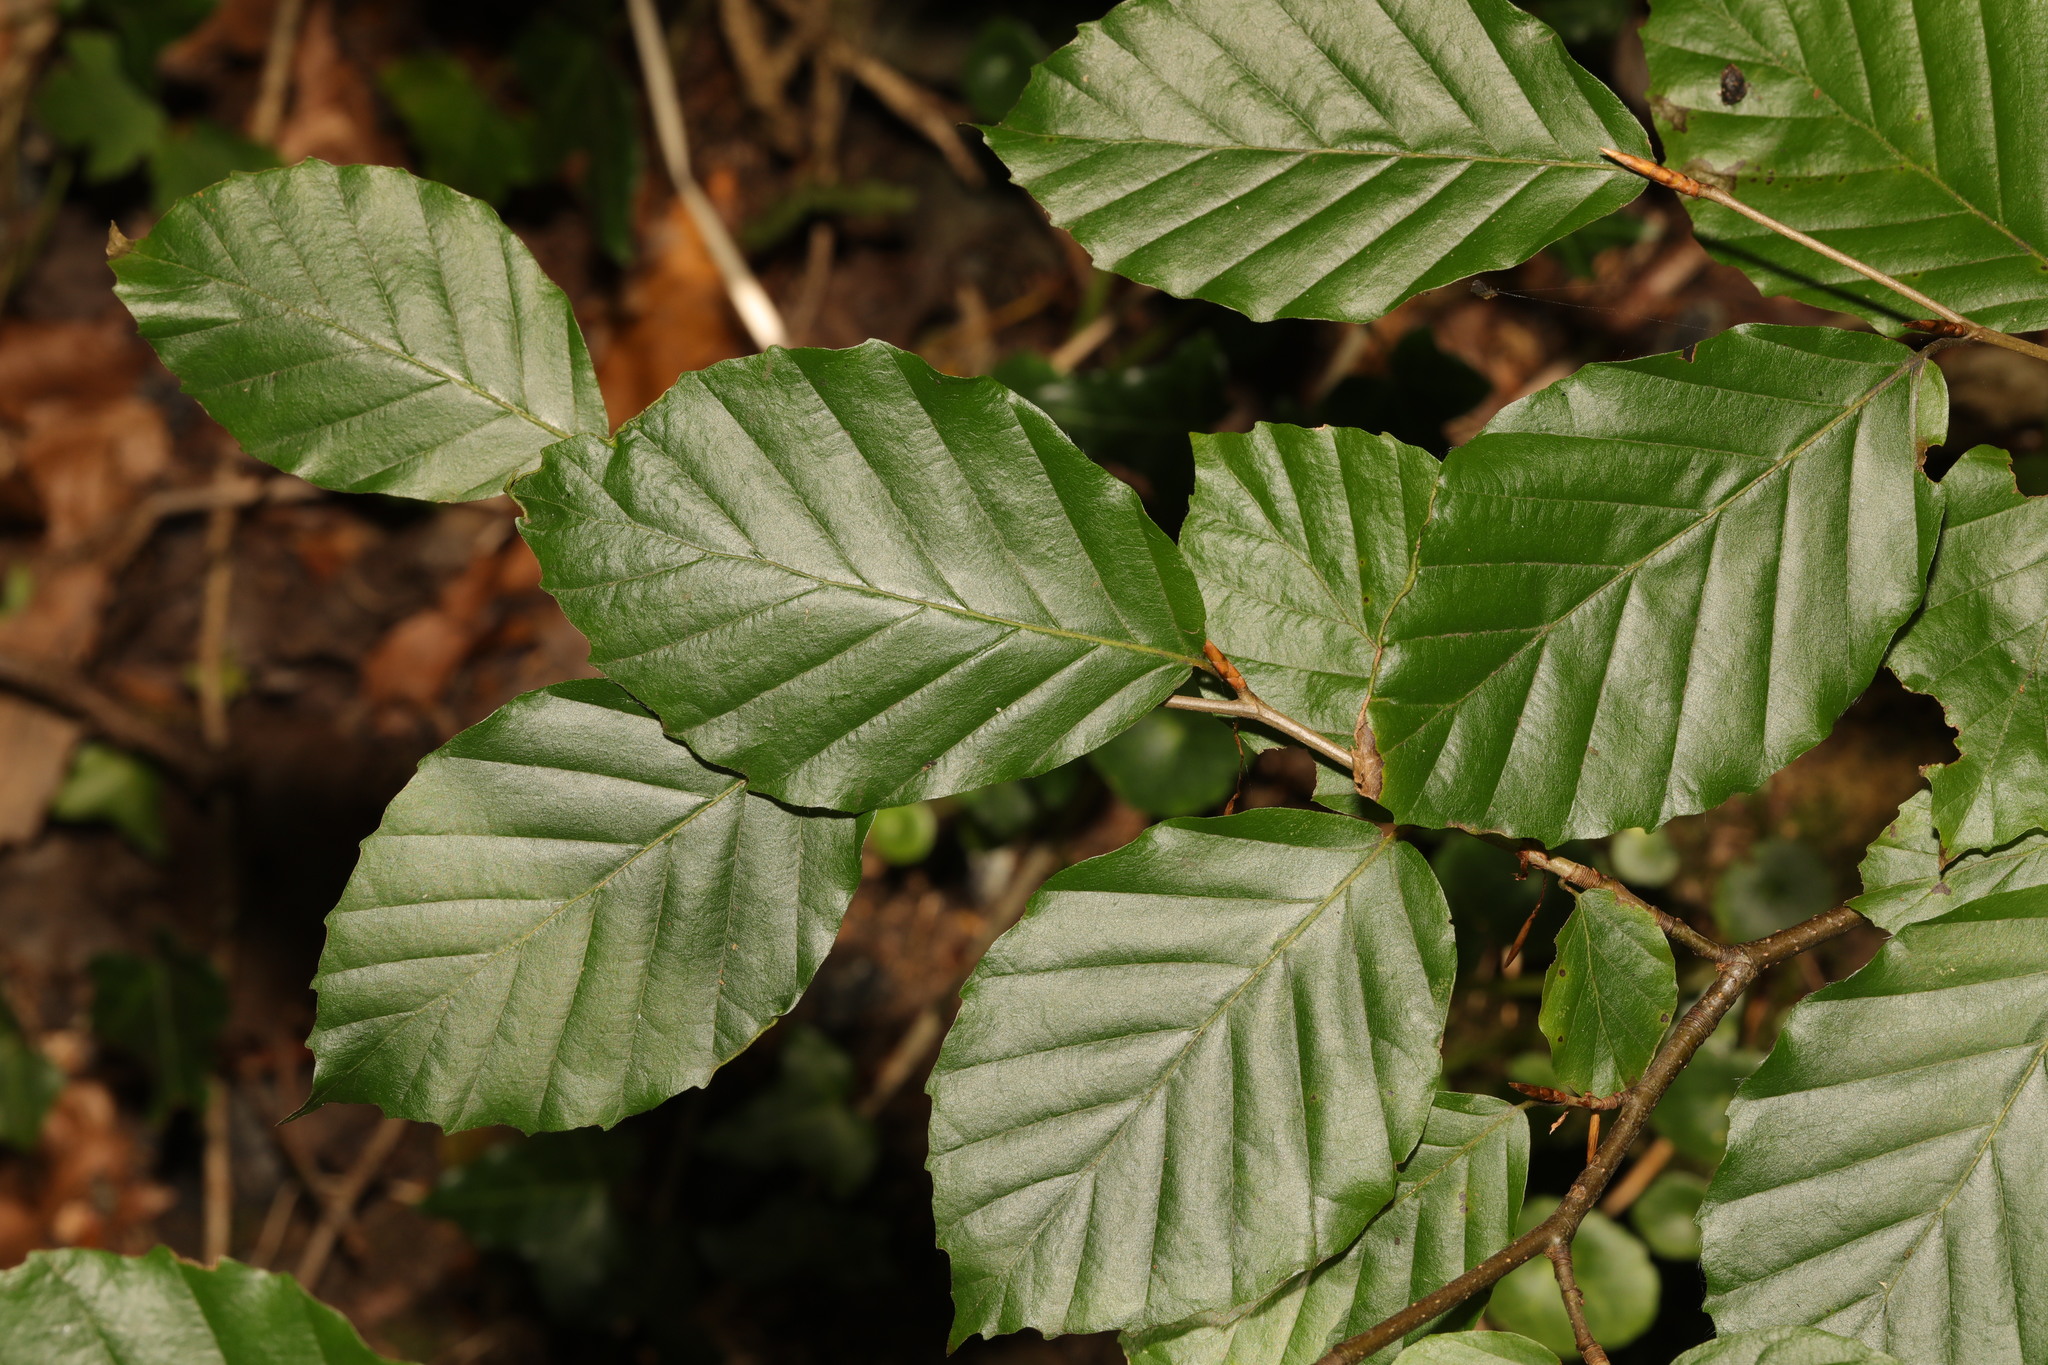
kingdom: Plantae
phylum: Tracheophyta
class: Magnoliopsida
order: Fagales
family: Fagaceae
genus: Fagus
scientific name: Fagus sylvatica
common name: Beech
